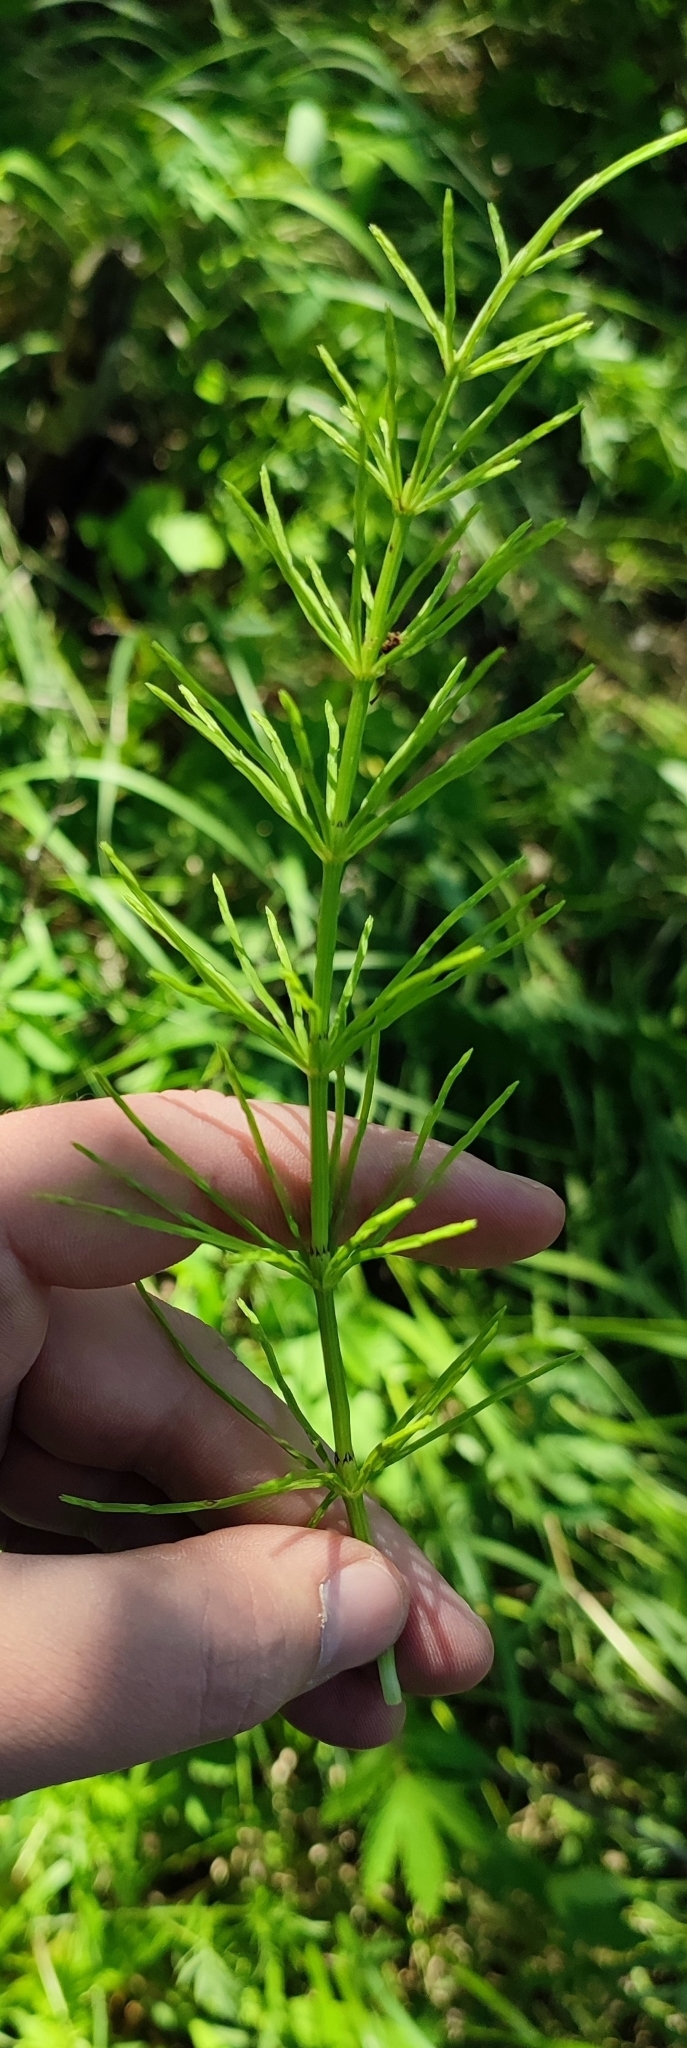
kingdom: Plantae
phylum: Tracheophyta
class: Polypodiopsida
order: Equisetales
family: Equisetaceae
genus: Equisetum
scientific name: Equisetum arvense
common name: Field horsetail
